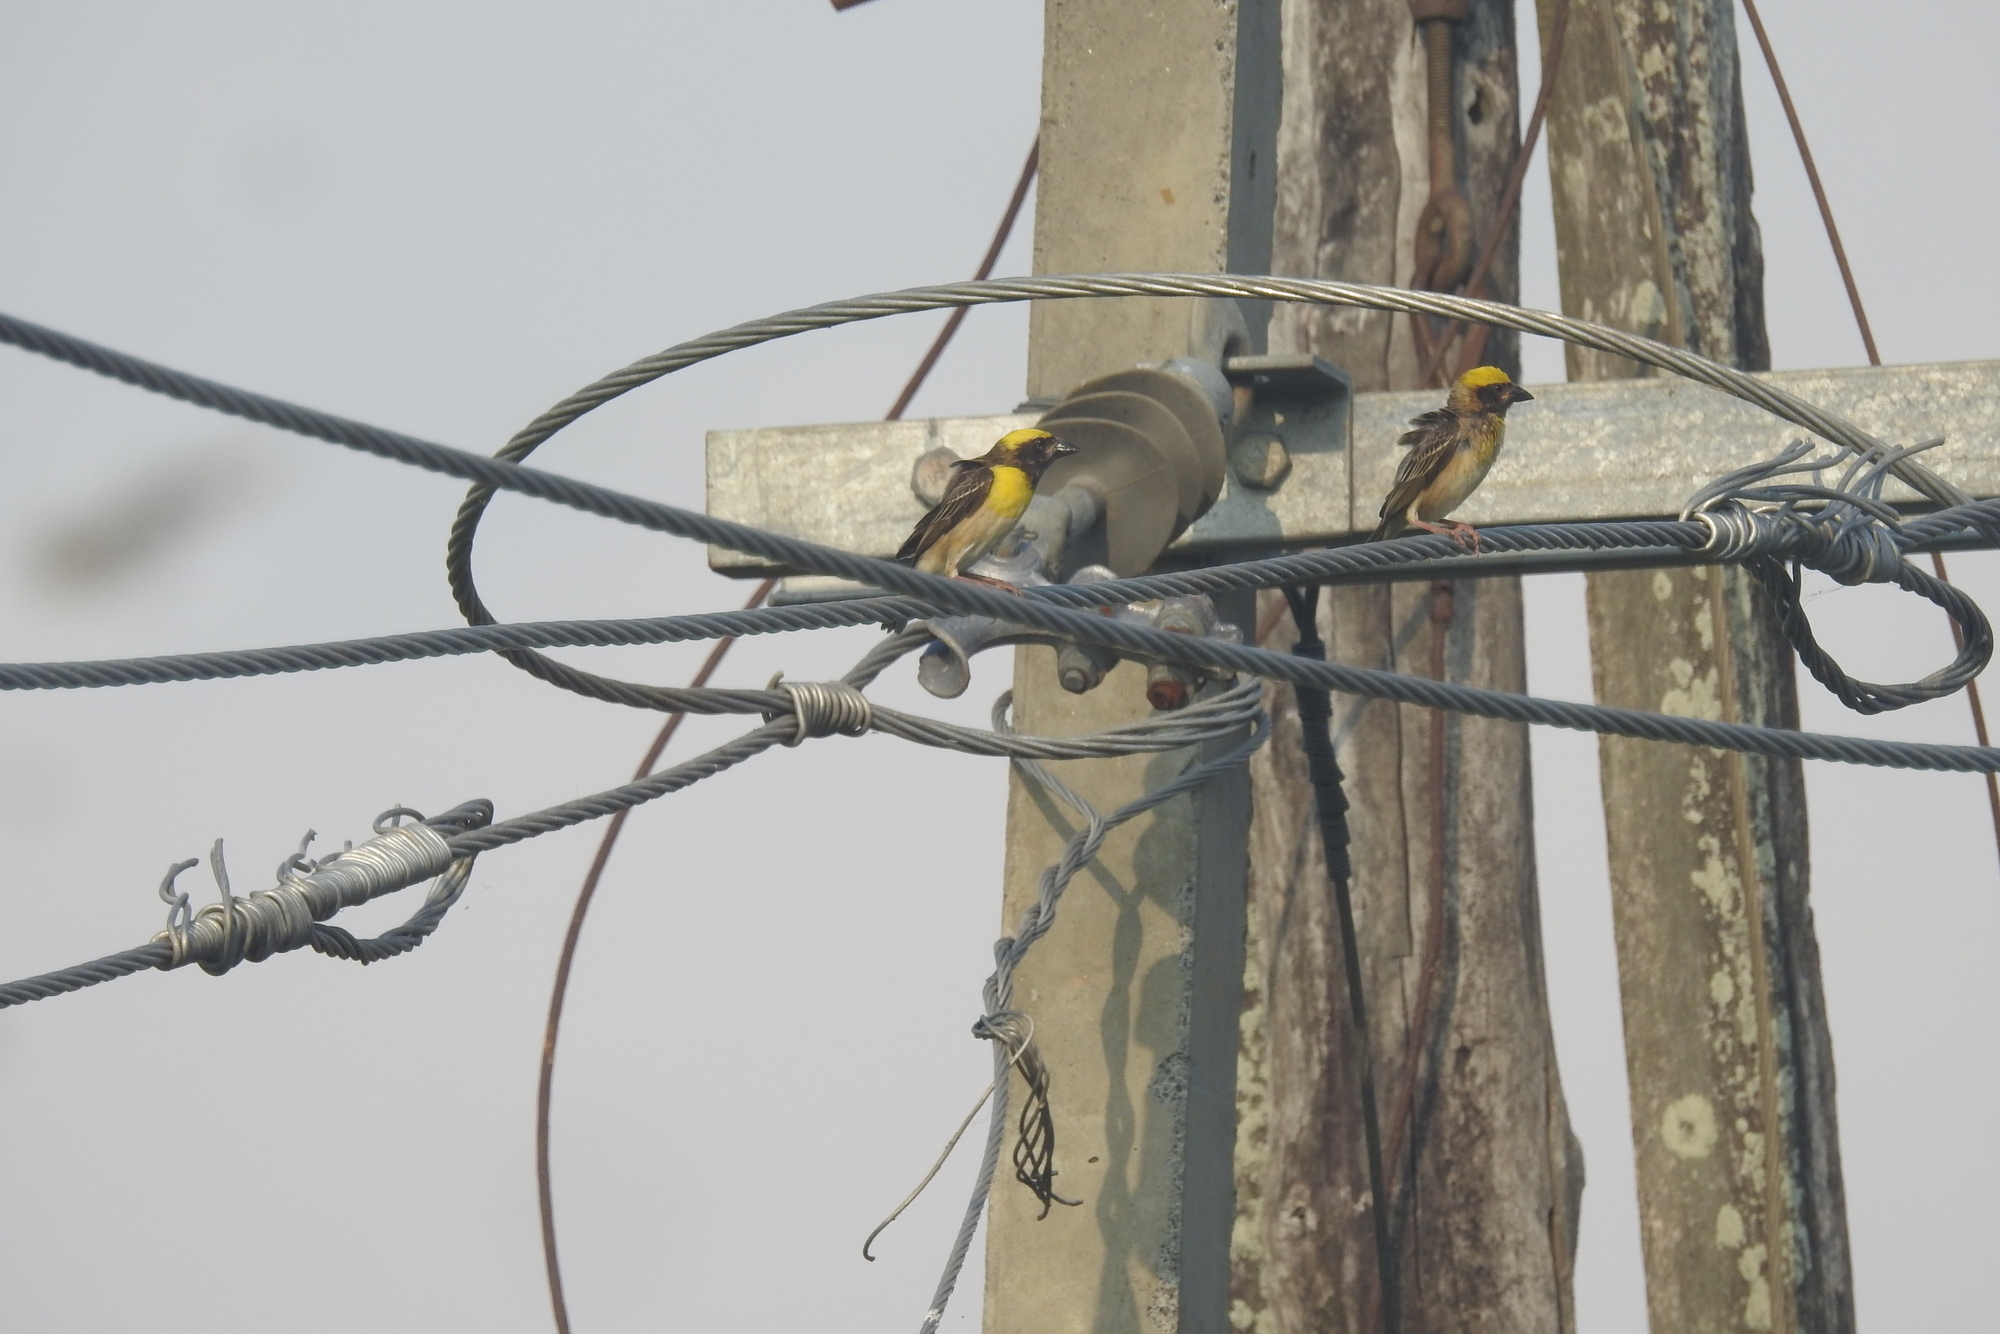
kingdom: Animalia
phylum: Chordata
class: Aves
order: Passeriformes
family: Ploceidae
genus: Ploceus
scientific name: Ploceus philippinus
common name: Baya weaver
